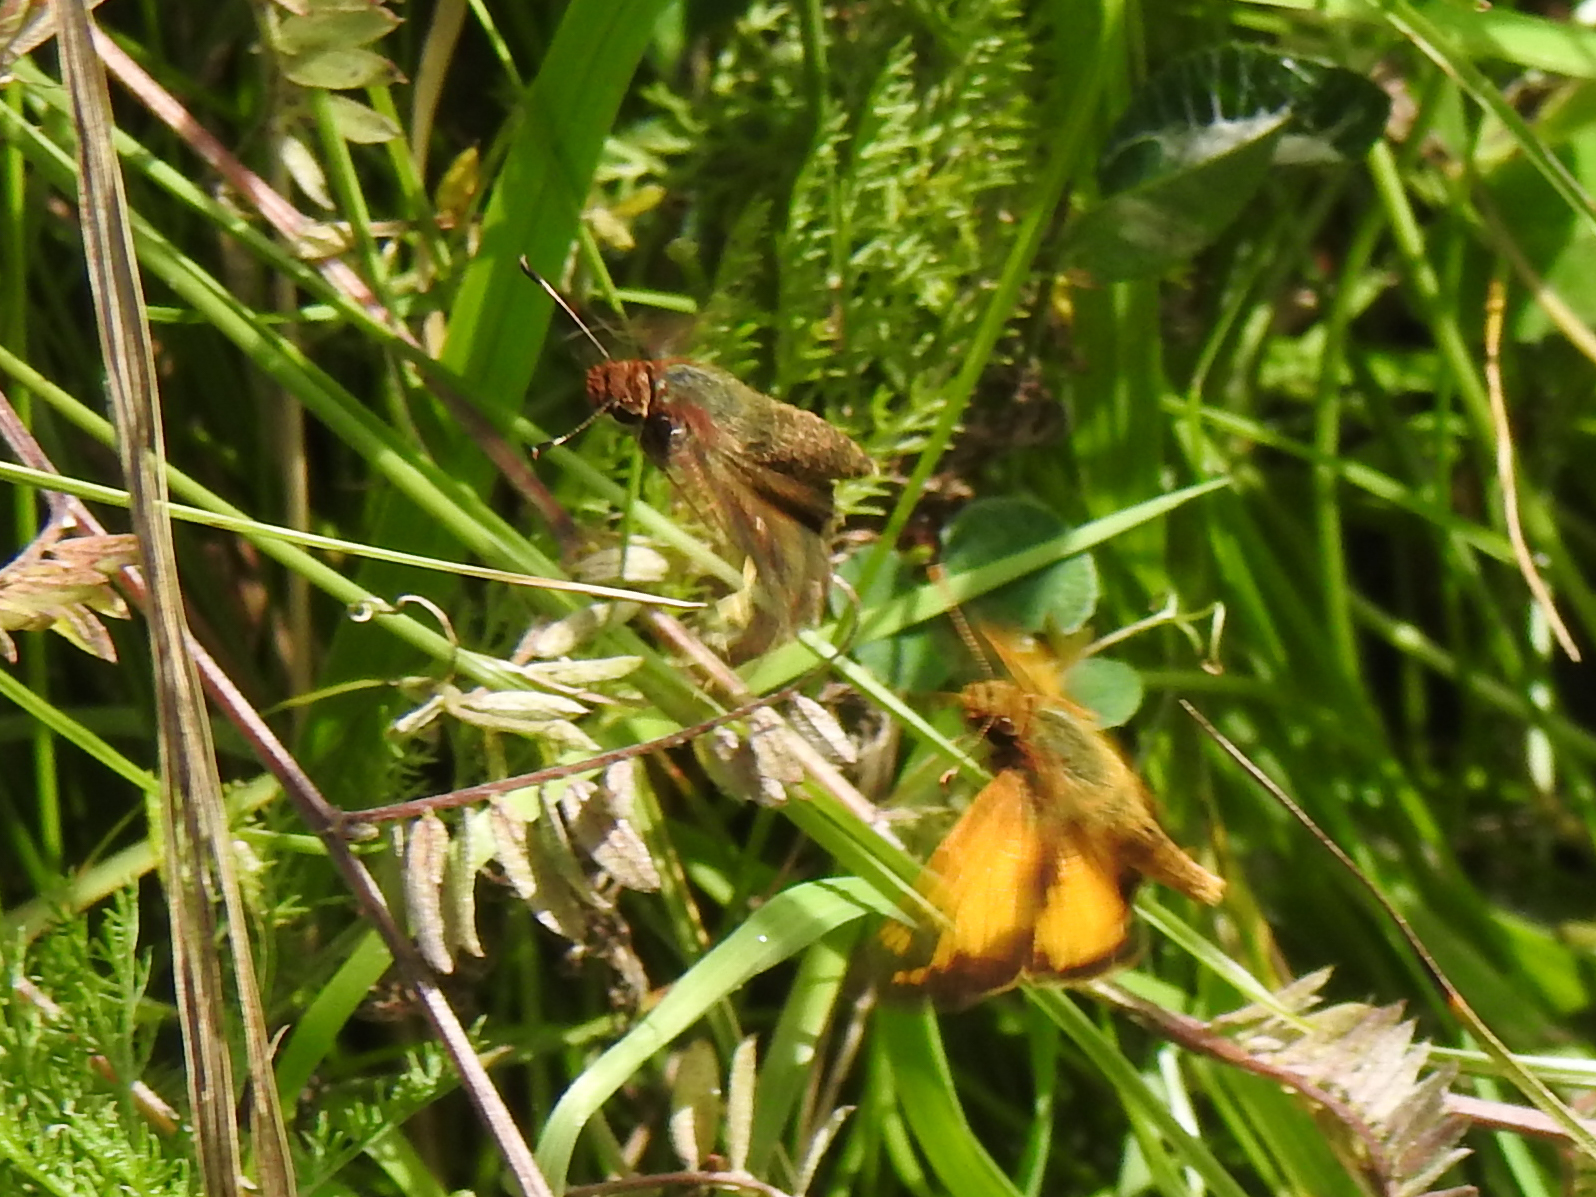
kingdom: Animalia
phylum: Arthropoda
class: Insecta
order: Lepidoptera
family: Hesperiidae
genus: Lon
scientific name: Lon zabulon
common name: Zabulon skipper
